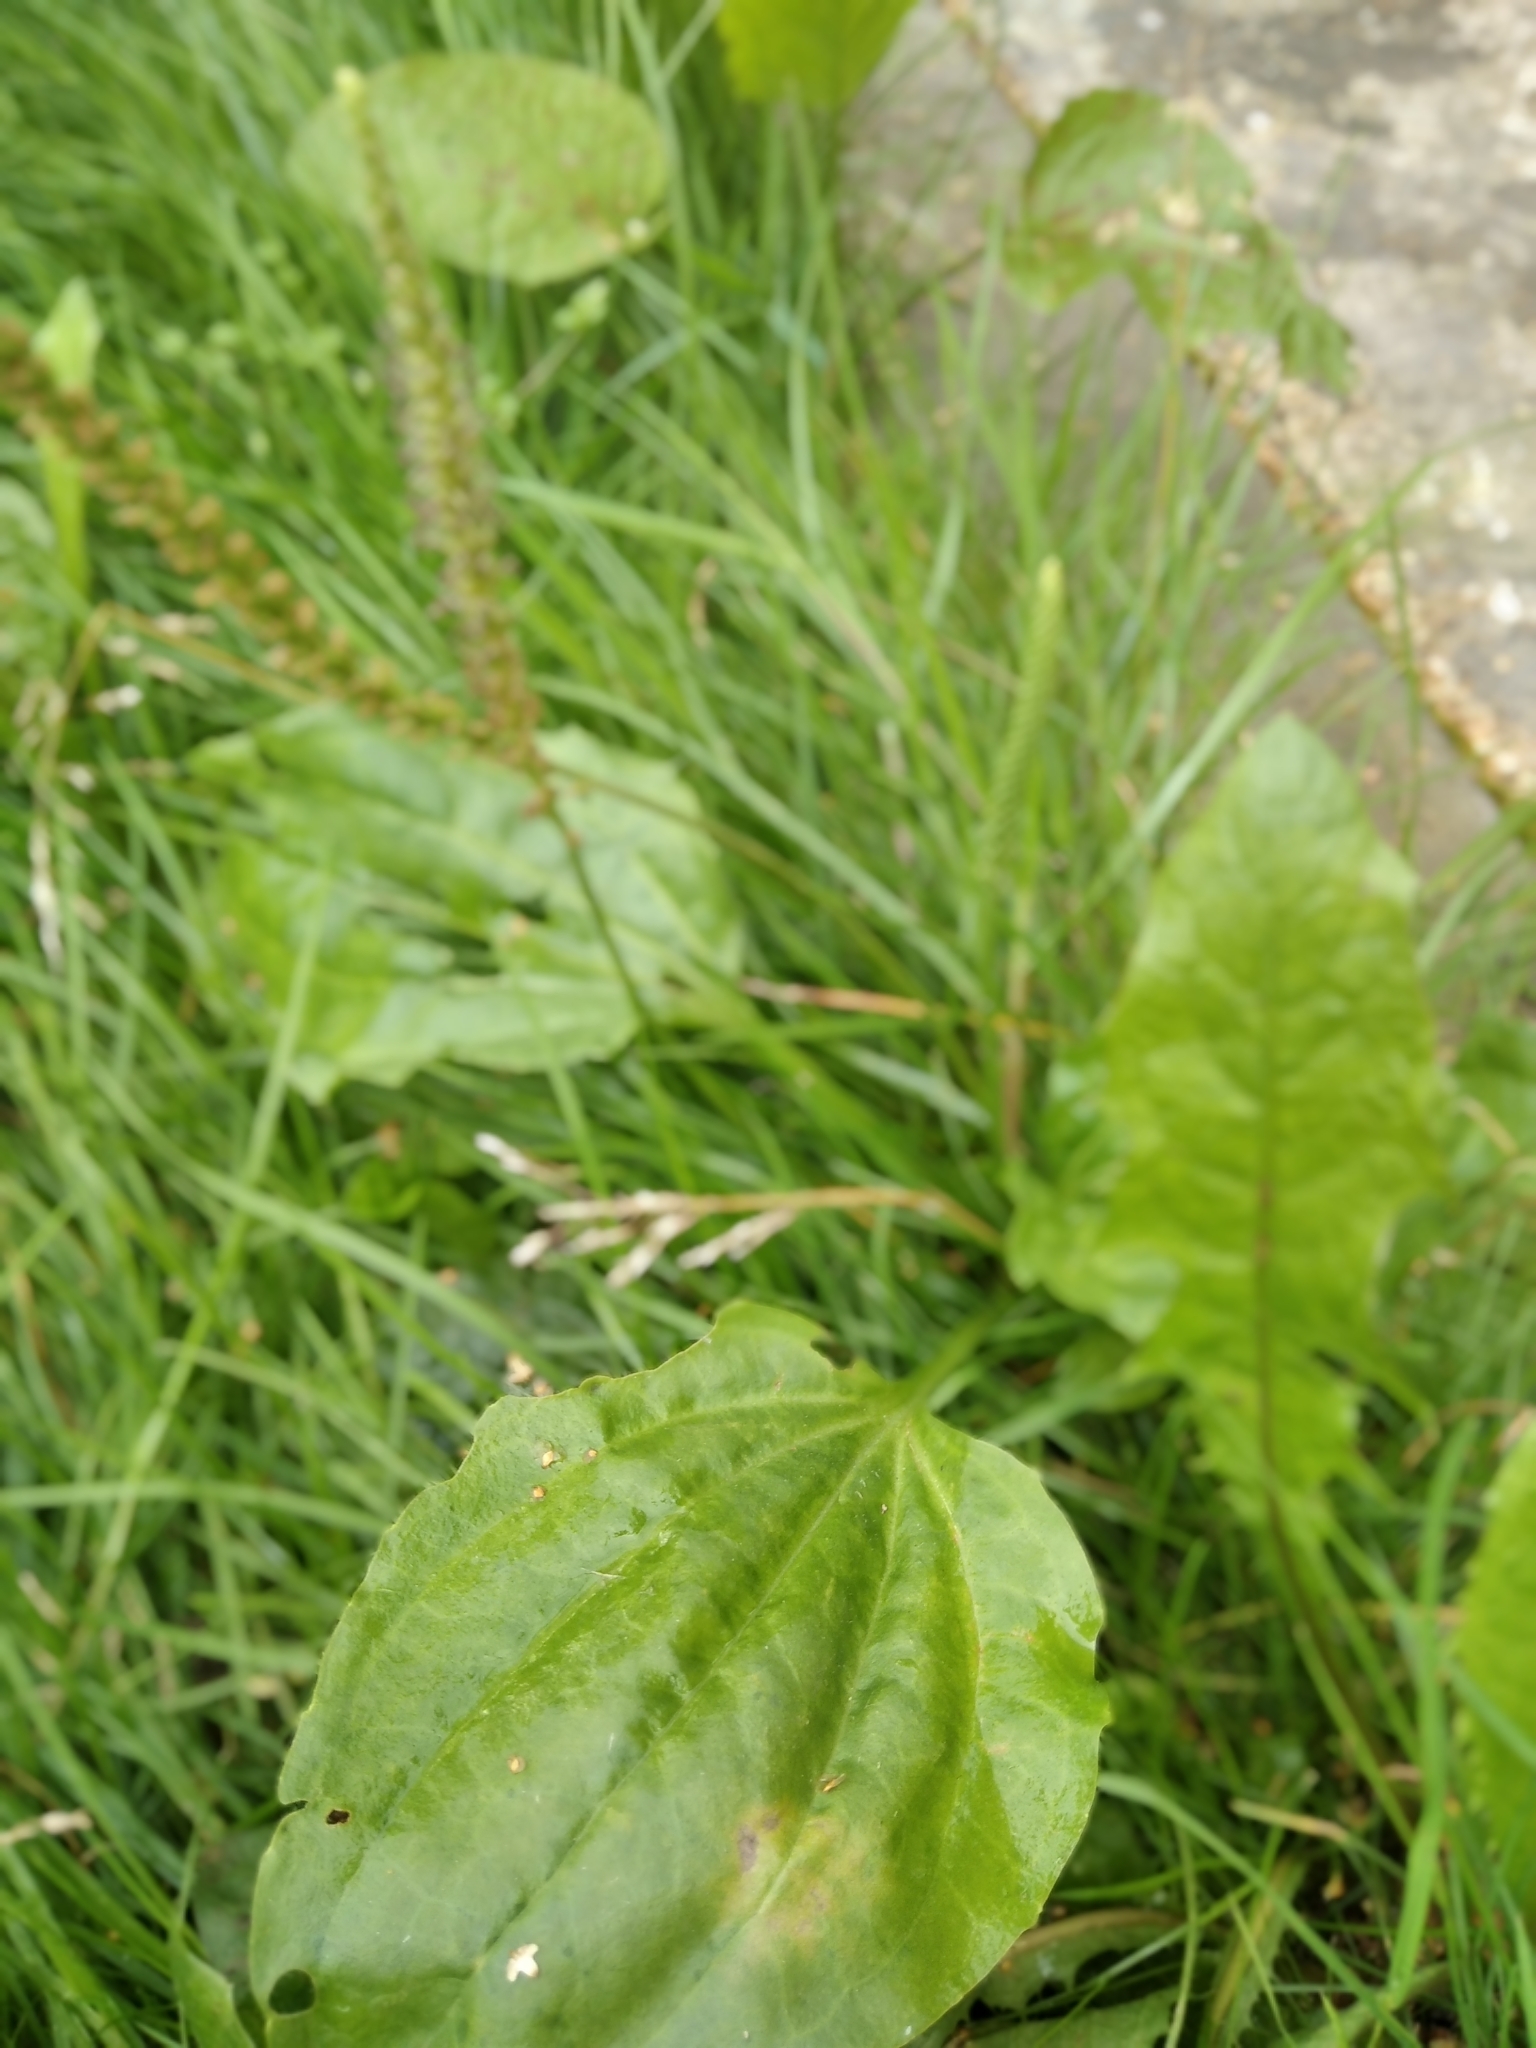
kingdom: Plantae
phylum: Tracheophyta
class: Magnoliopsida
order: Lamiales
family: Plantaginaceae
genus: Plantago
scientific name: Plantago major
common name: Common plantain
